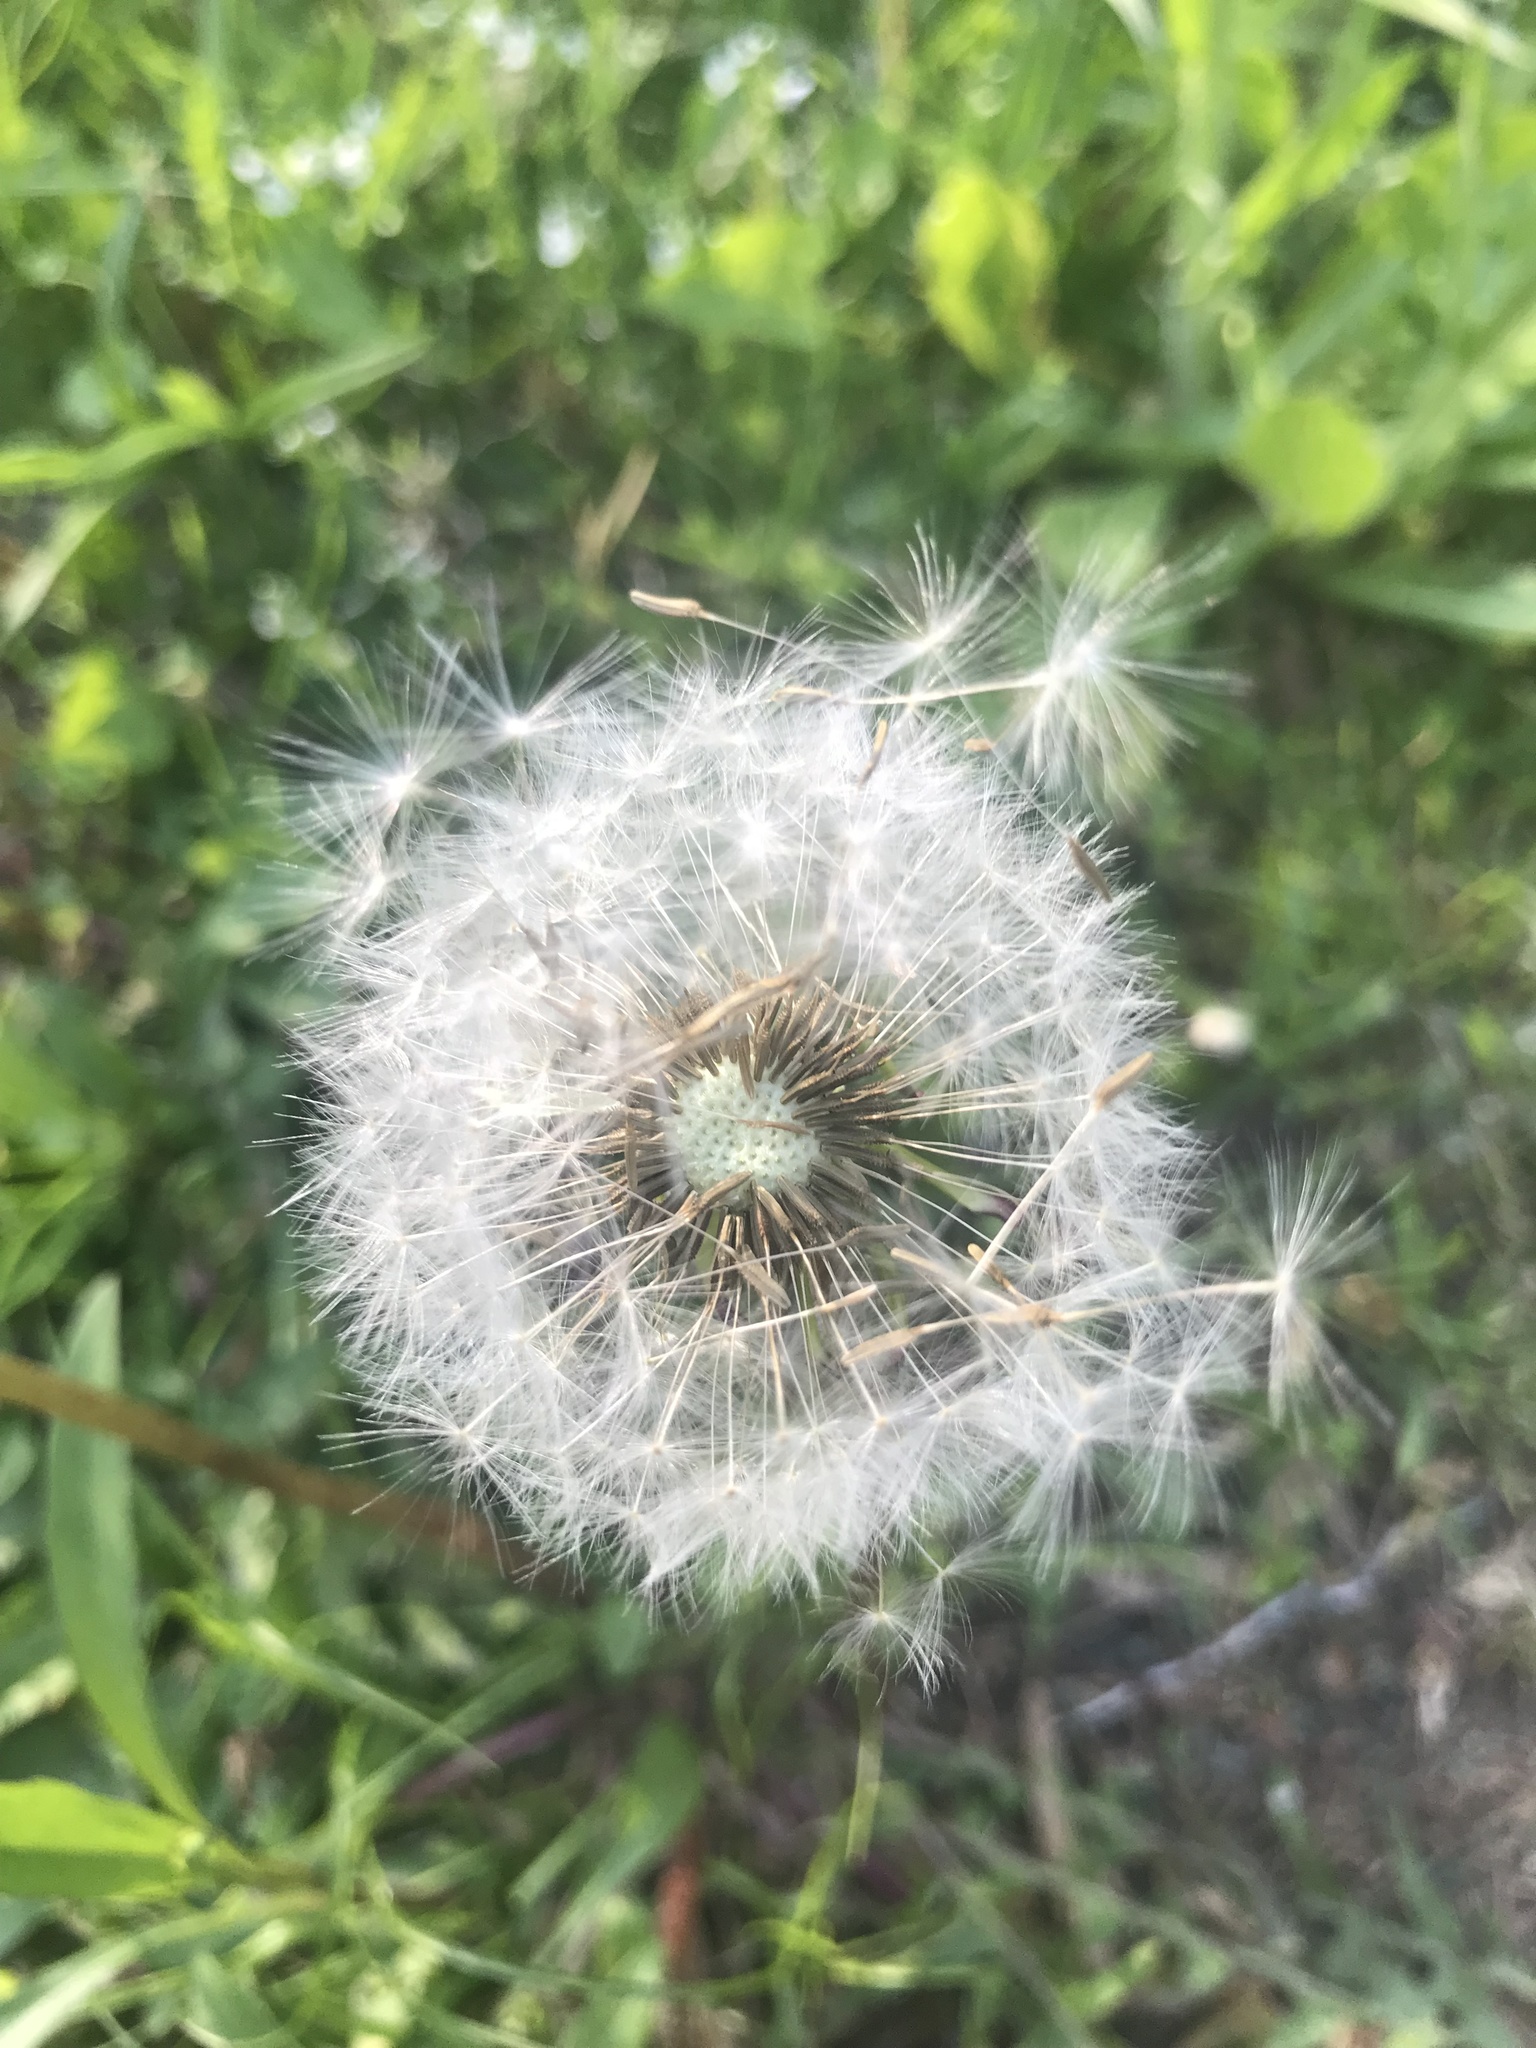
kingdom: Plantae
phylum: Tracheophyta
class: Magnoliopsida
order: Asterales
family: Asteraceae
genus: Taraxacum
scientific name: Taraxacum officinale
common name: Common dandelion
